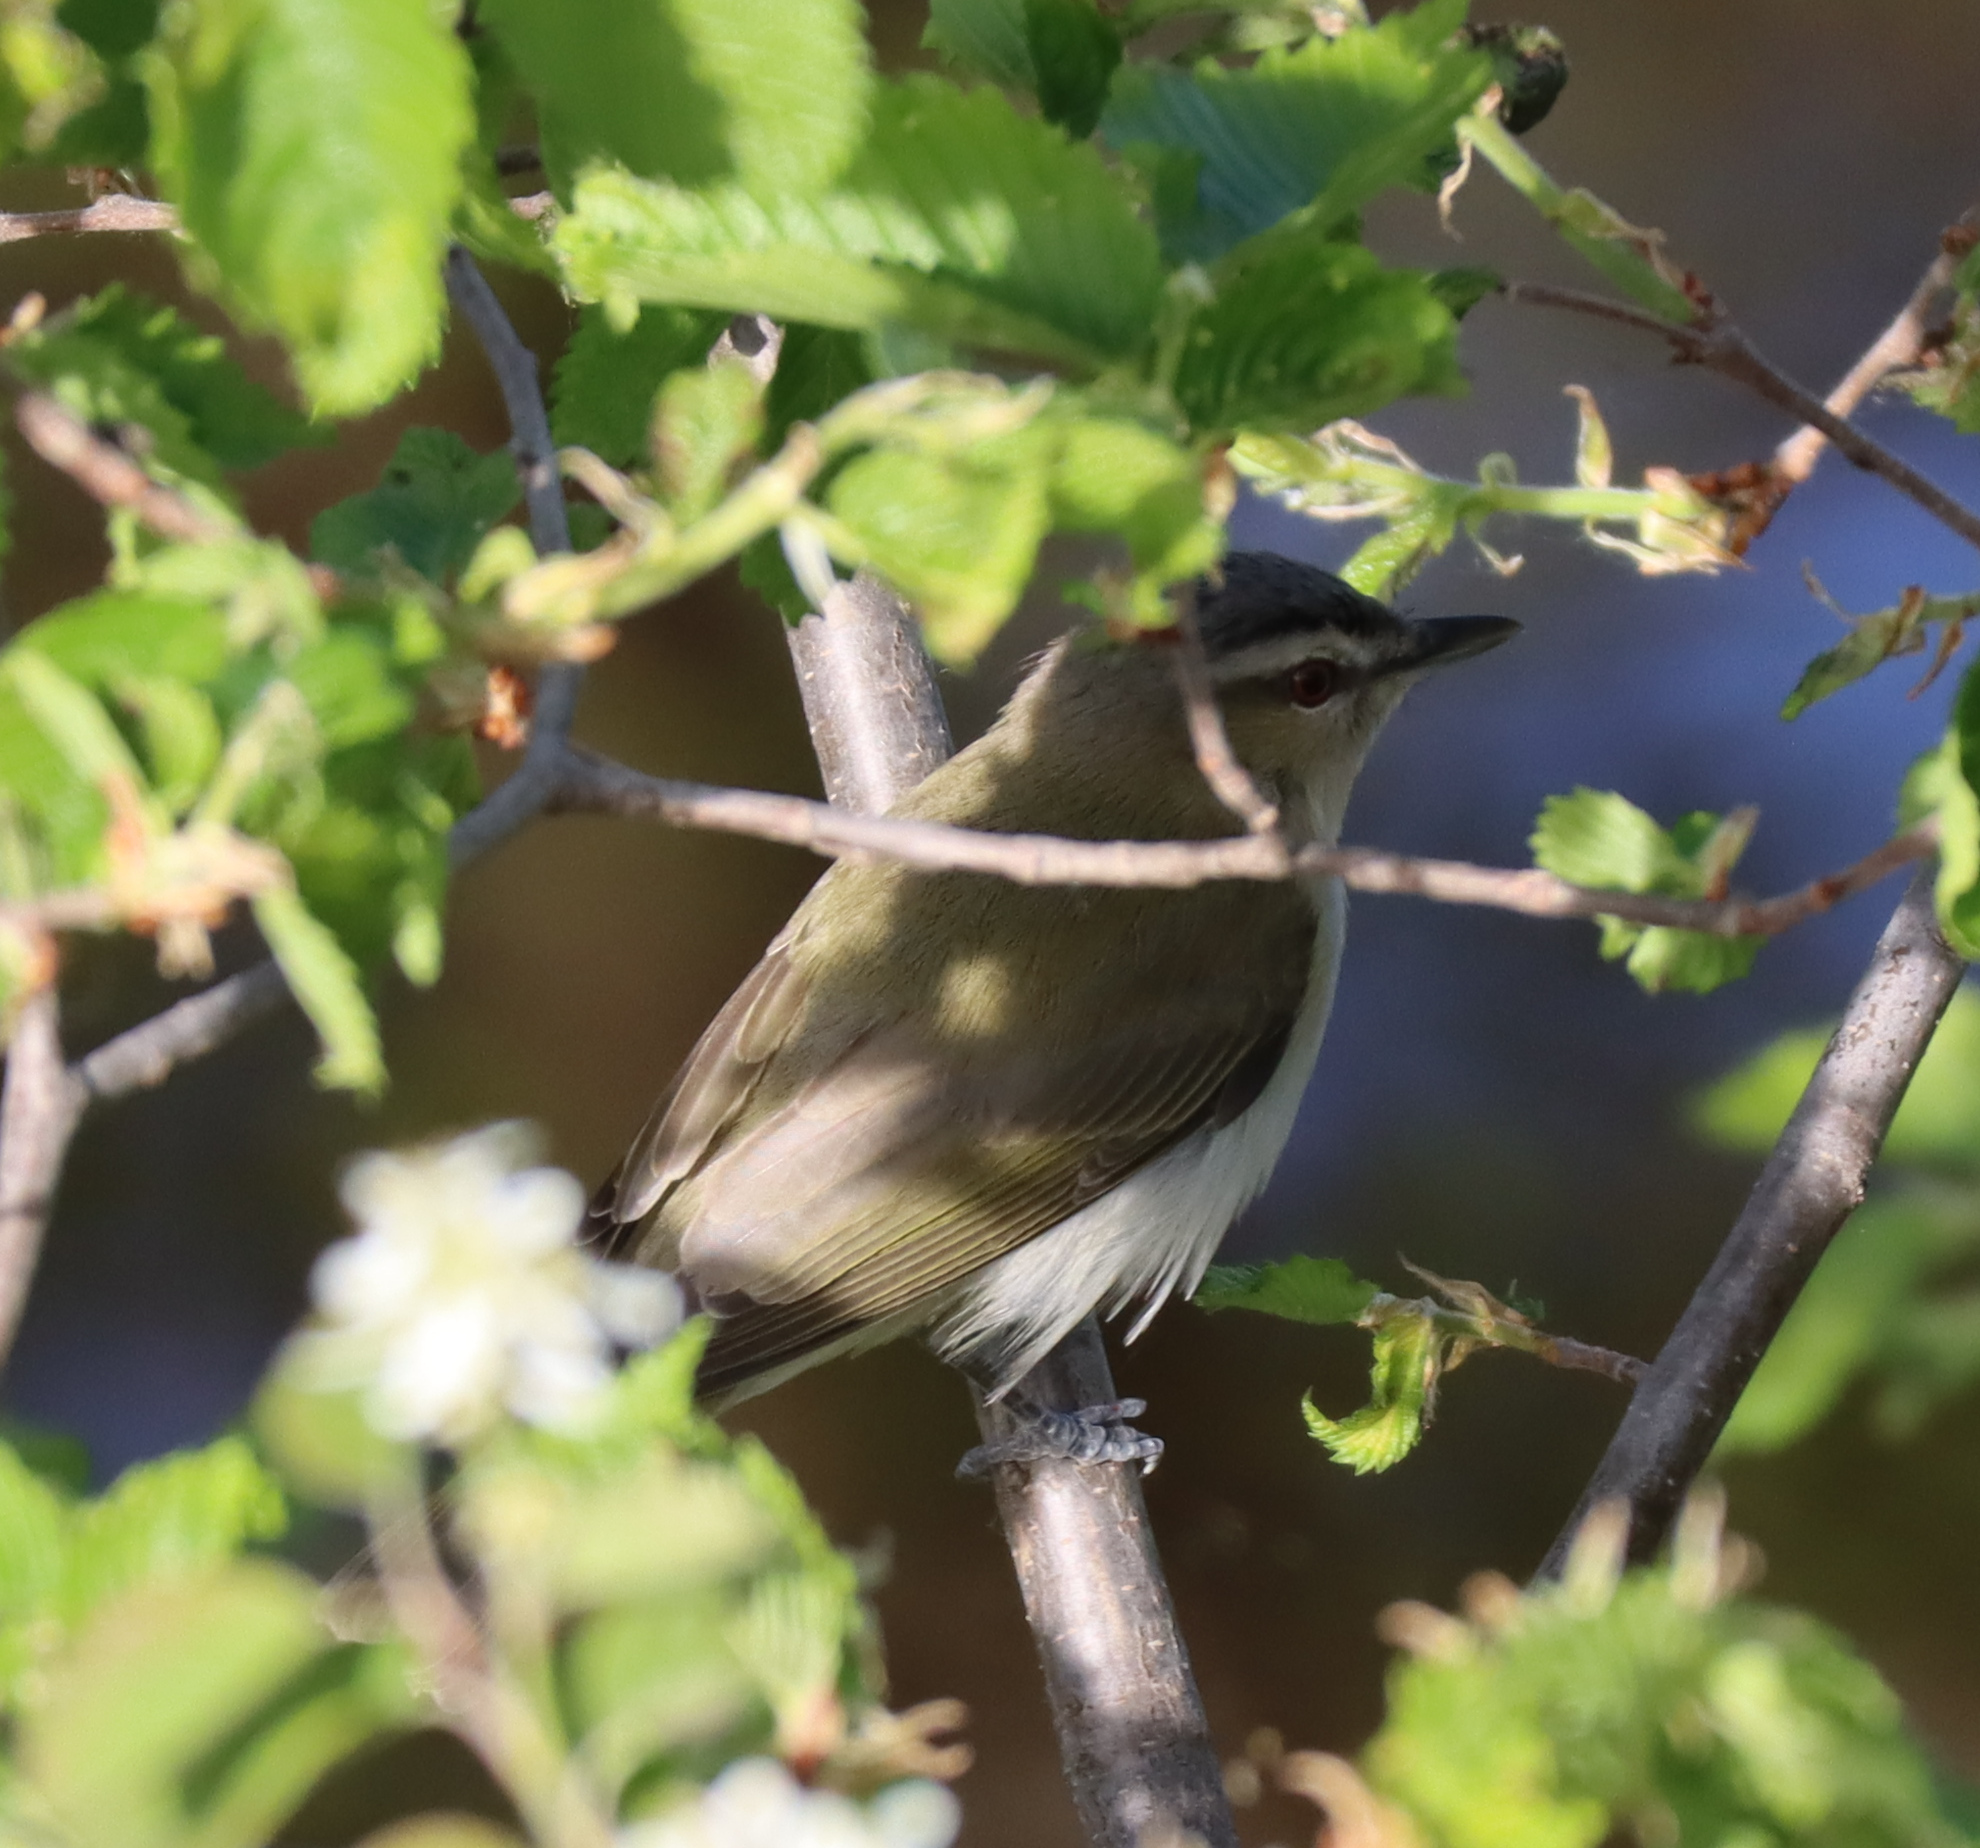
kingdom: Animalia
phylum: Chordata
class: Aves
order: Passeriformes
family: Vireonidae
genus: Vireo
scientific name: Vireo olivaceus
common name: Red-eyed vireo
